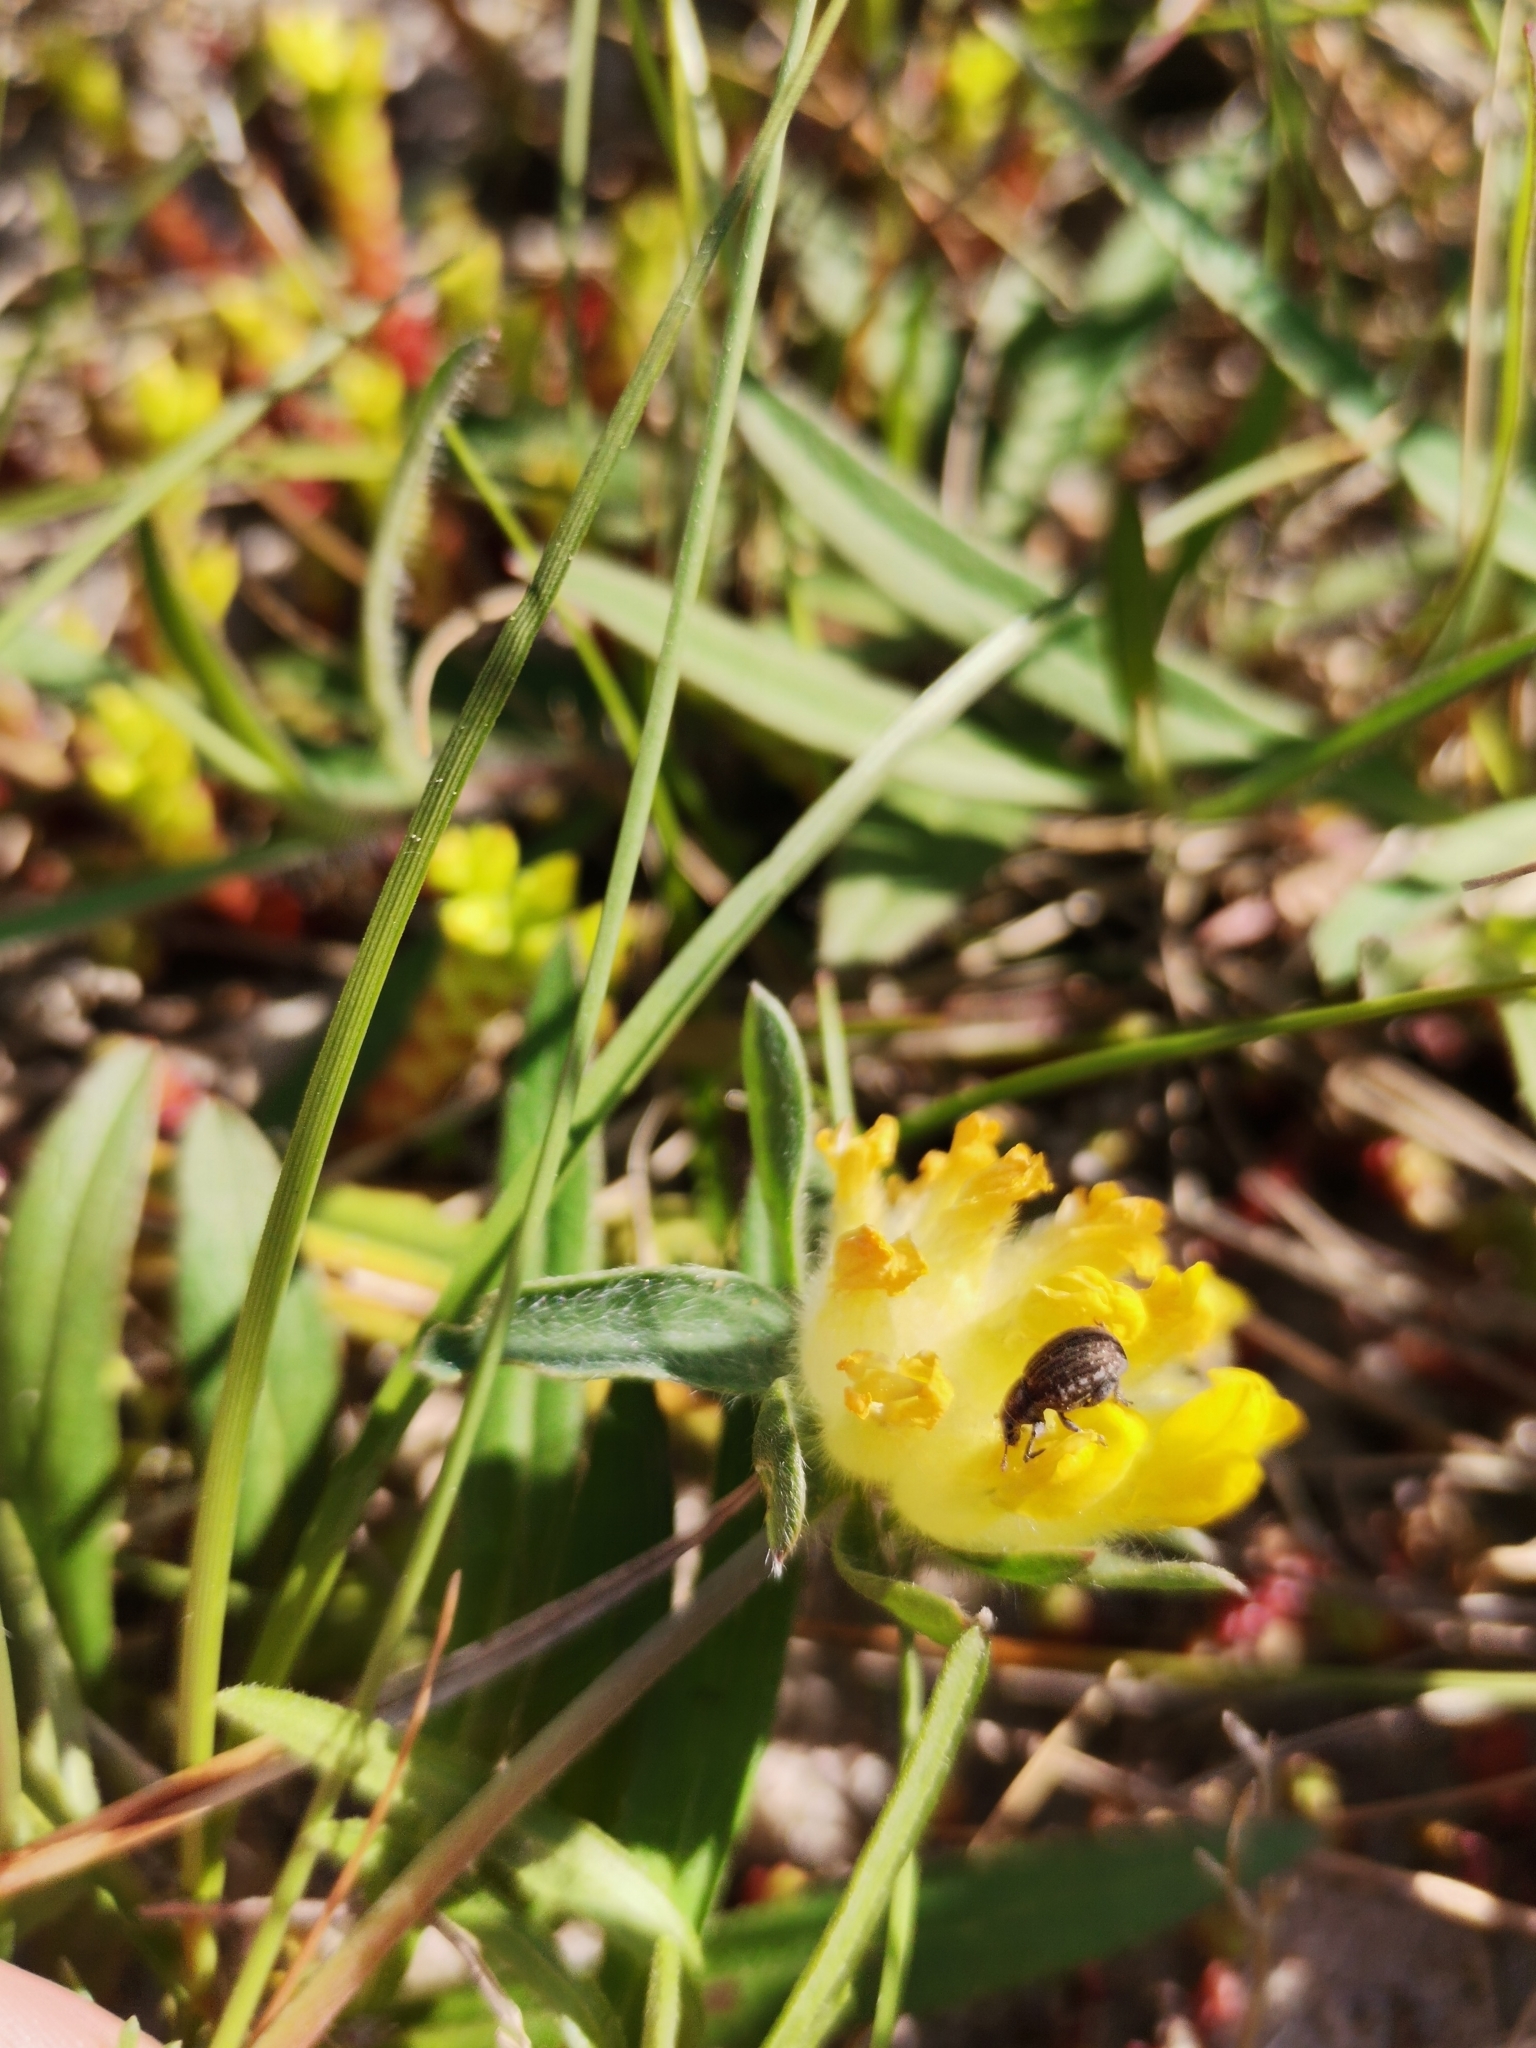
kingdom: Animalia
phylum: Arthropoda
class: Insecta
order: Coleoptera
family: Curculionidae
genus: Philopedon
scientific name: Philopedon plagiatum
